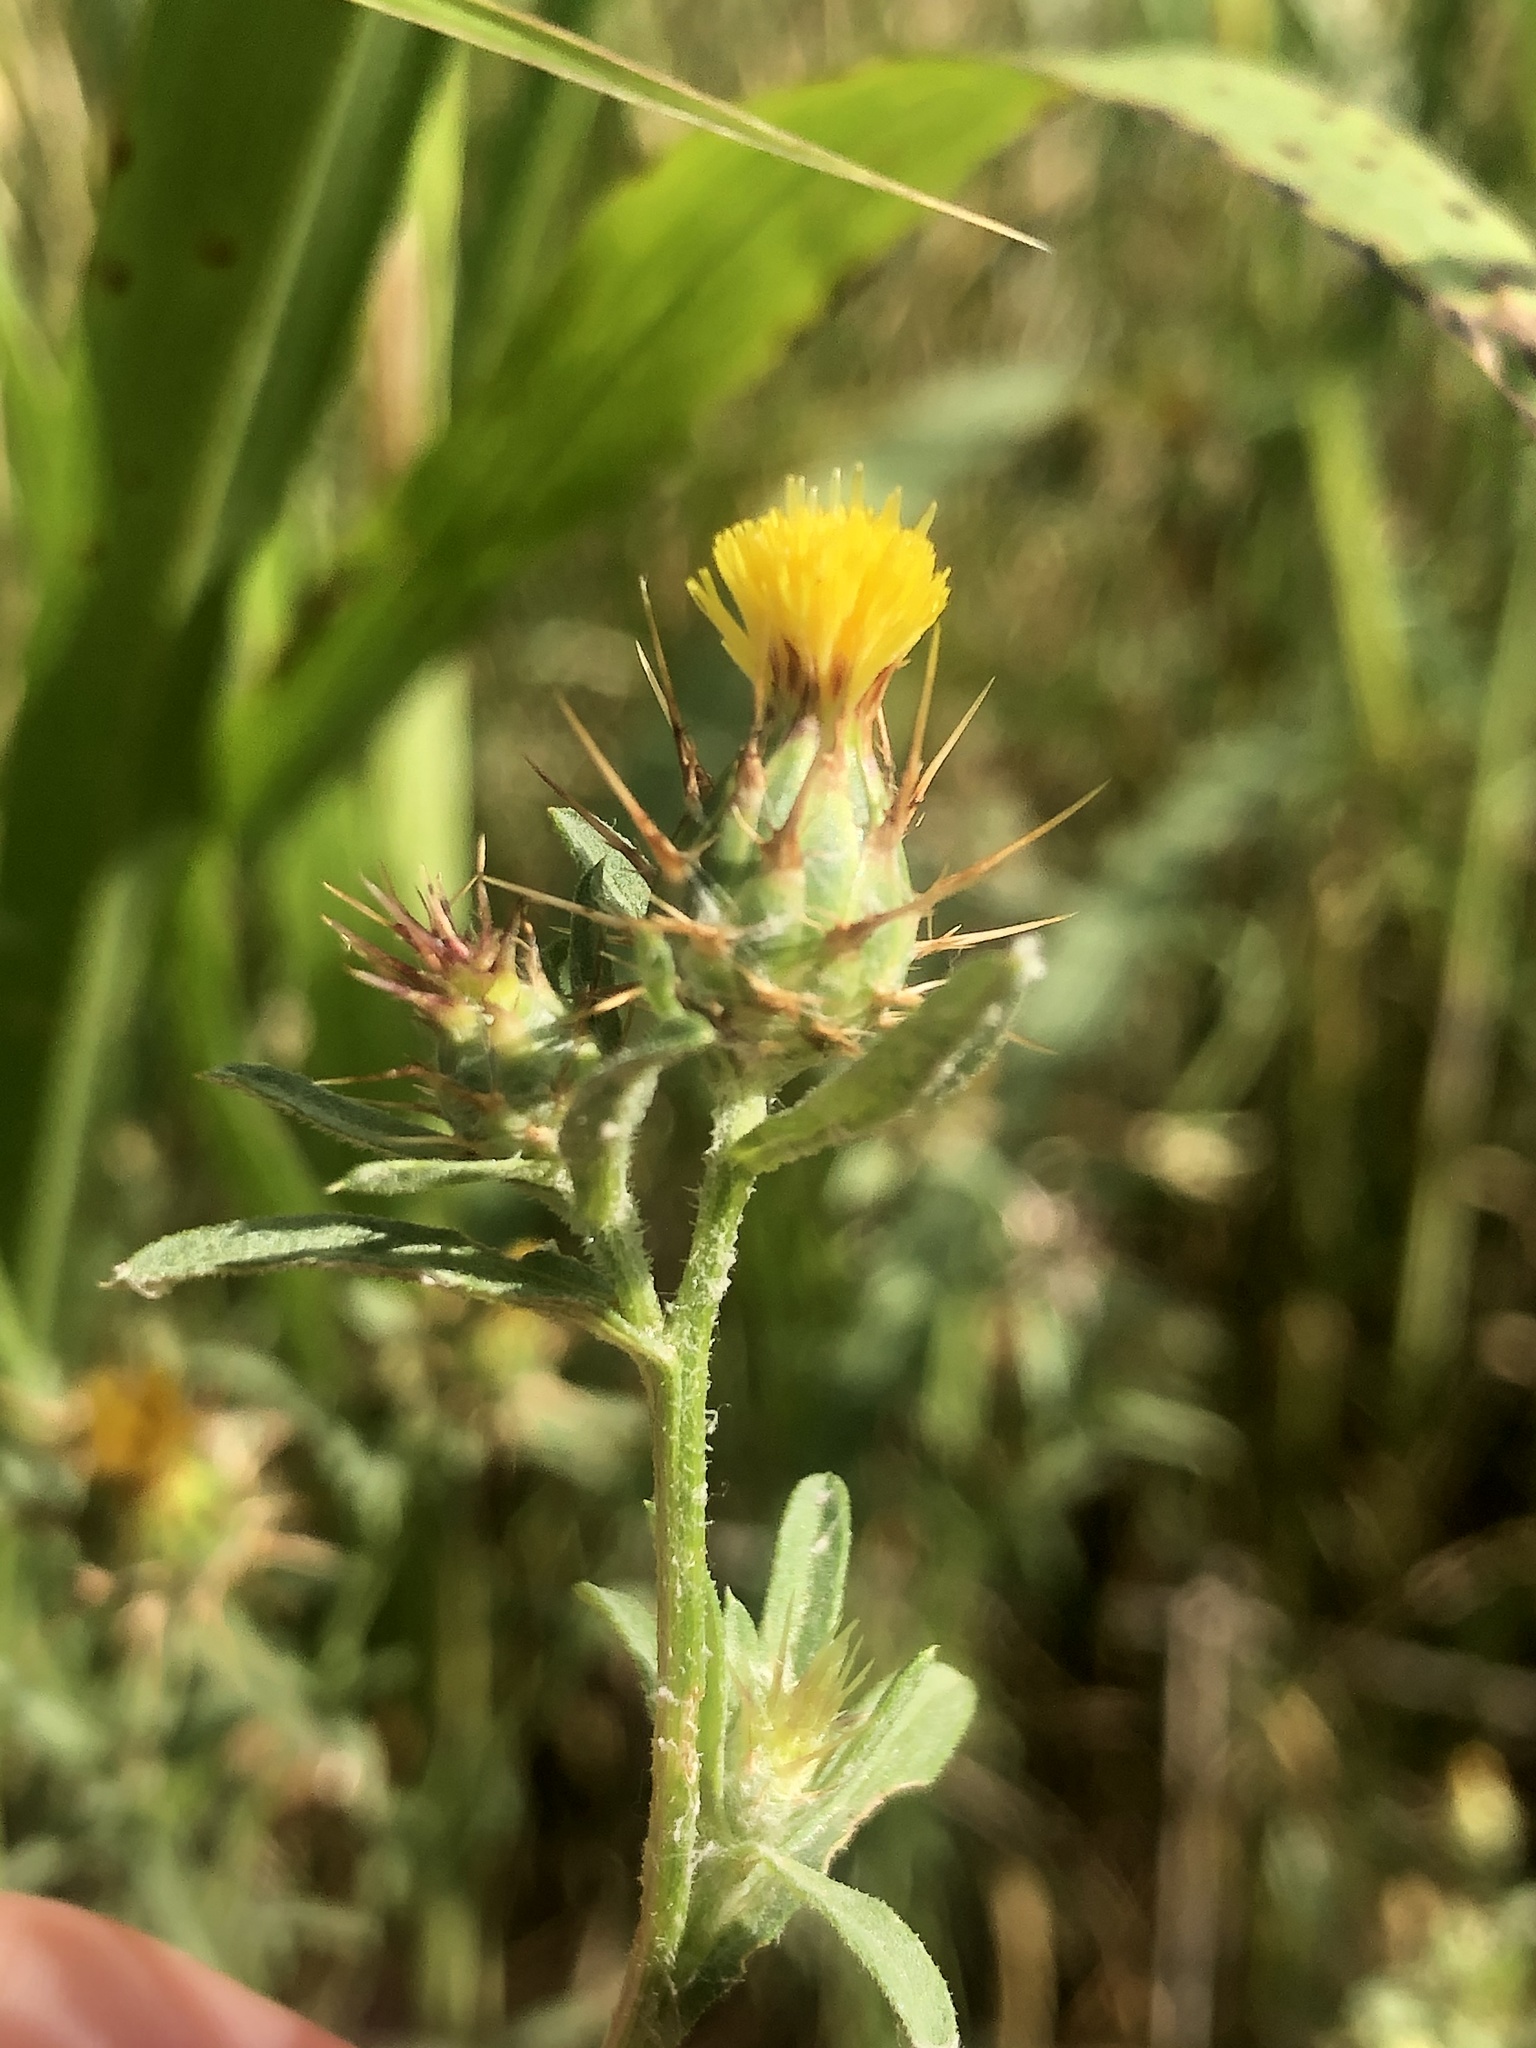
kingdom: Plantae
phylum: Tracheophyta
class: Magnoliopsida
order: Asterales
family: Asteraceae
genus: Centaurea
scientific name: Centaurea melitensis
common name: Maltese star-thistle
